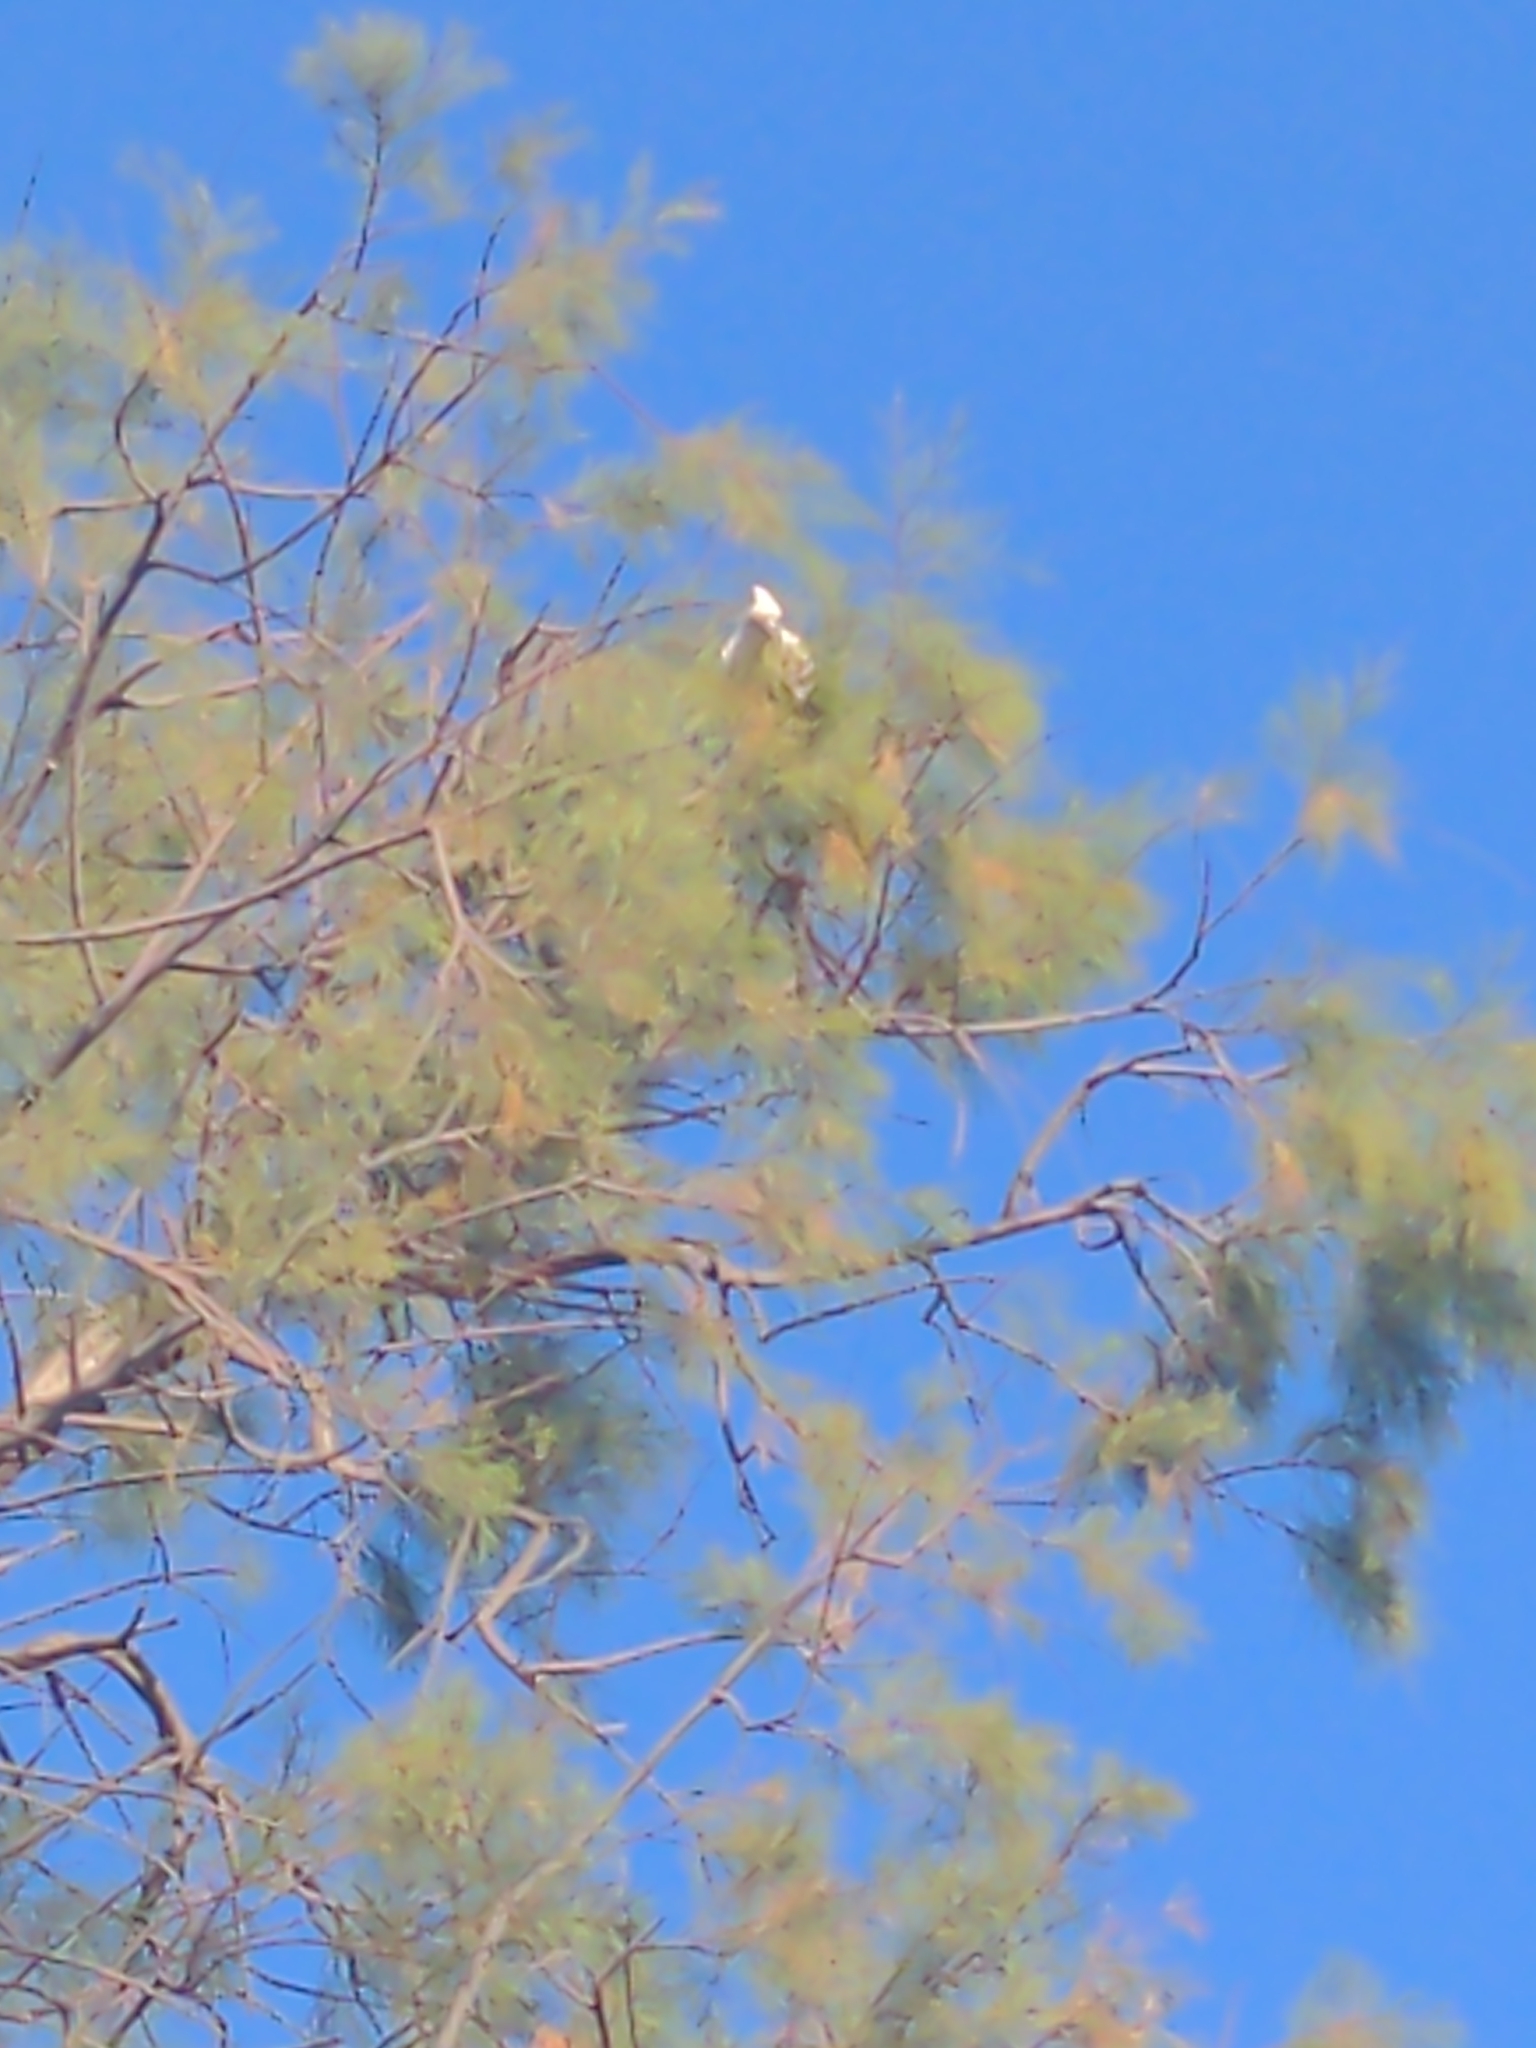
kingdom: Animalia
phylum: Chordata
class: Aves
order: Psittaciformes
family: Psittacidae
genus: Cacatua
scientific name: Cacatua sanguinea
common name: Little corella
